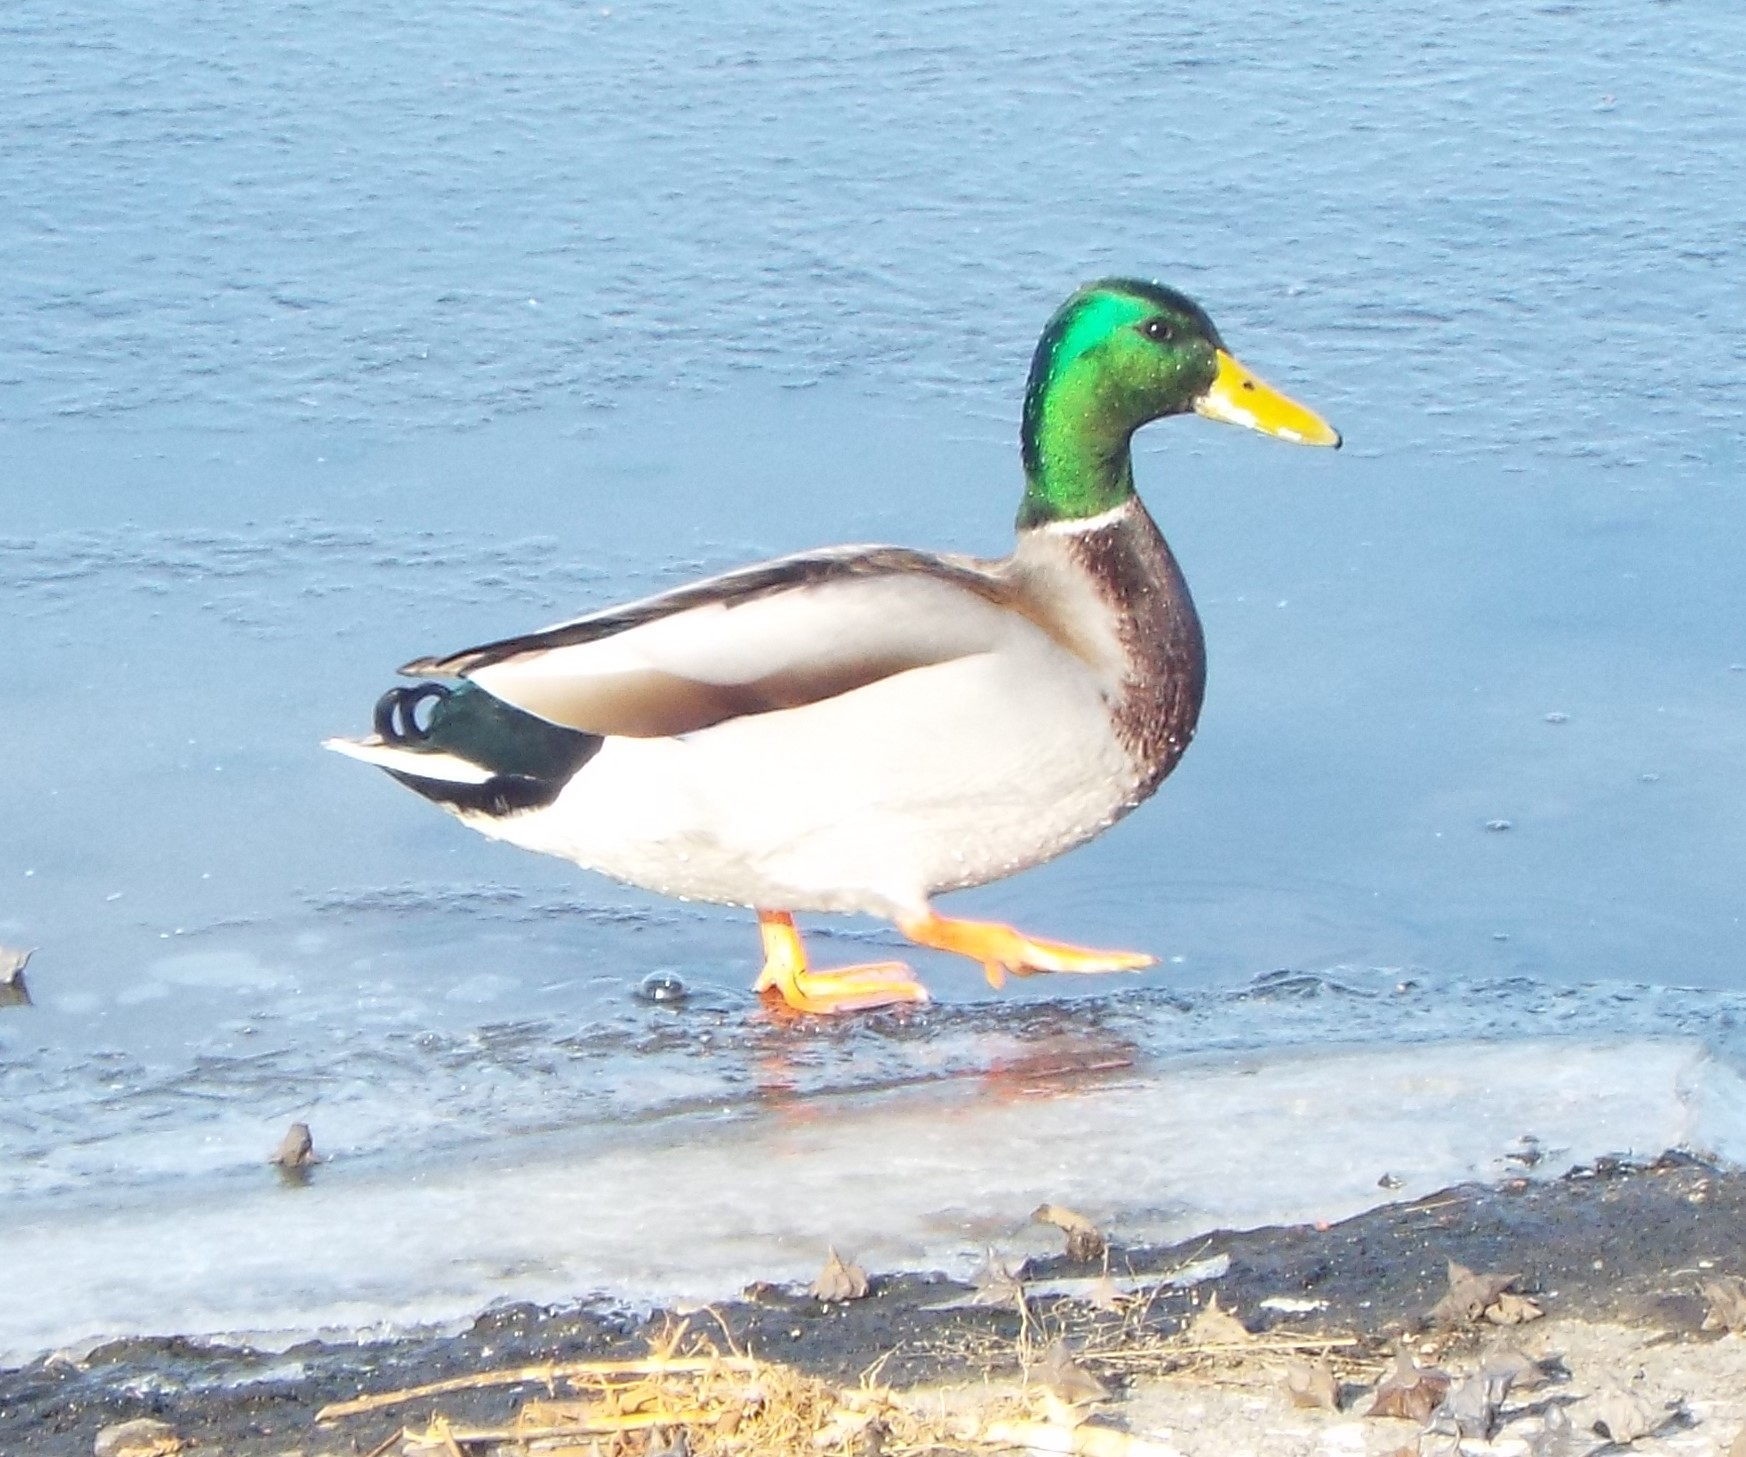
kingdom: Animalia
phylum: Chordata
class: Aves
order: Anseriformes
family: Anatidae
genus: Anas
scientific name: Anas platyrhynchos
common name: Mallard
